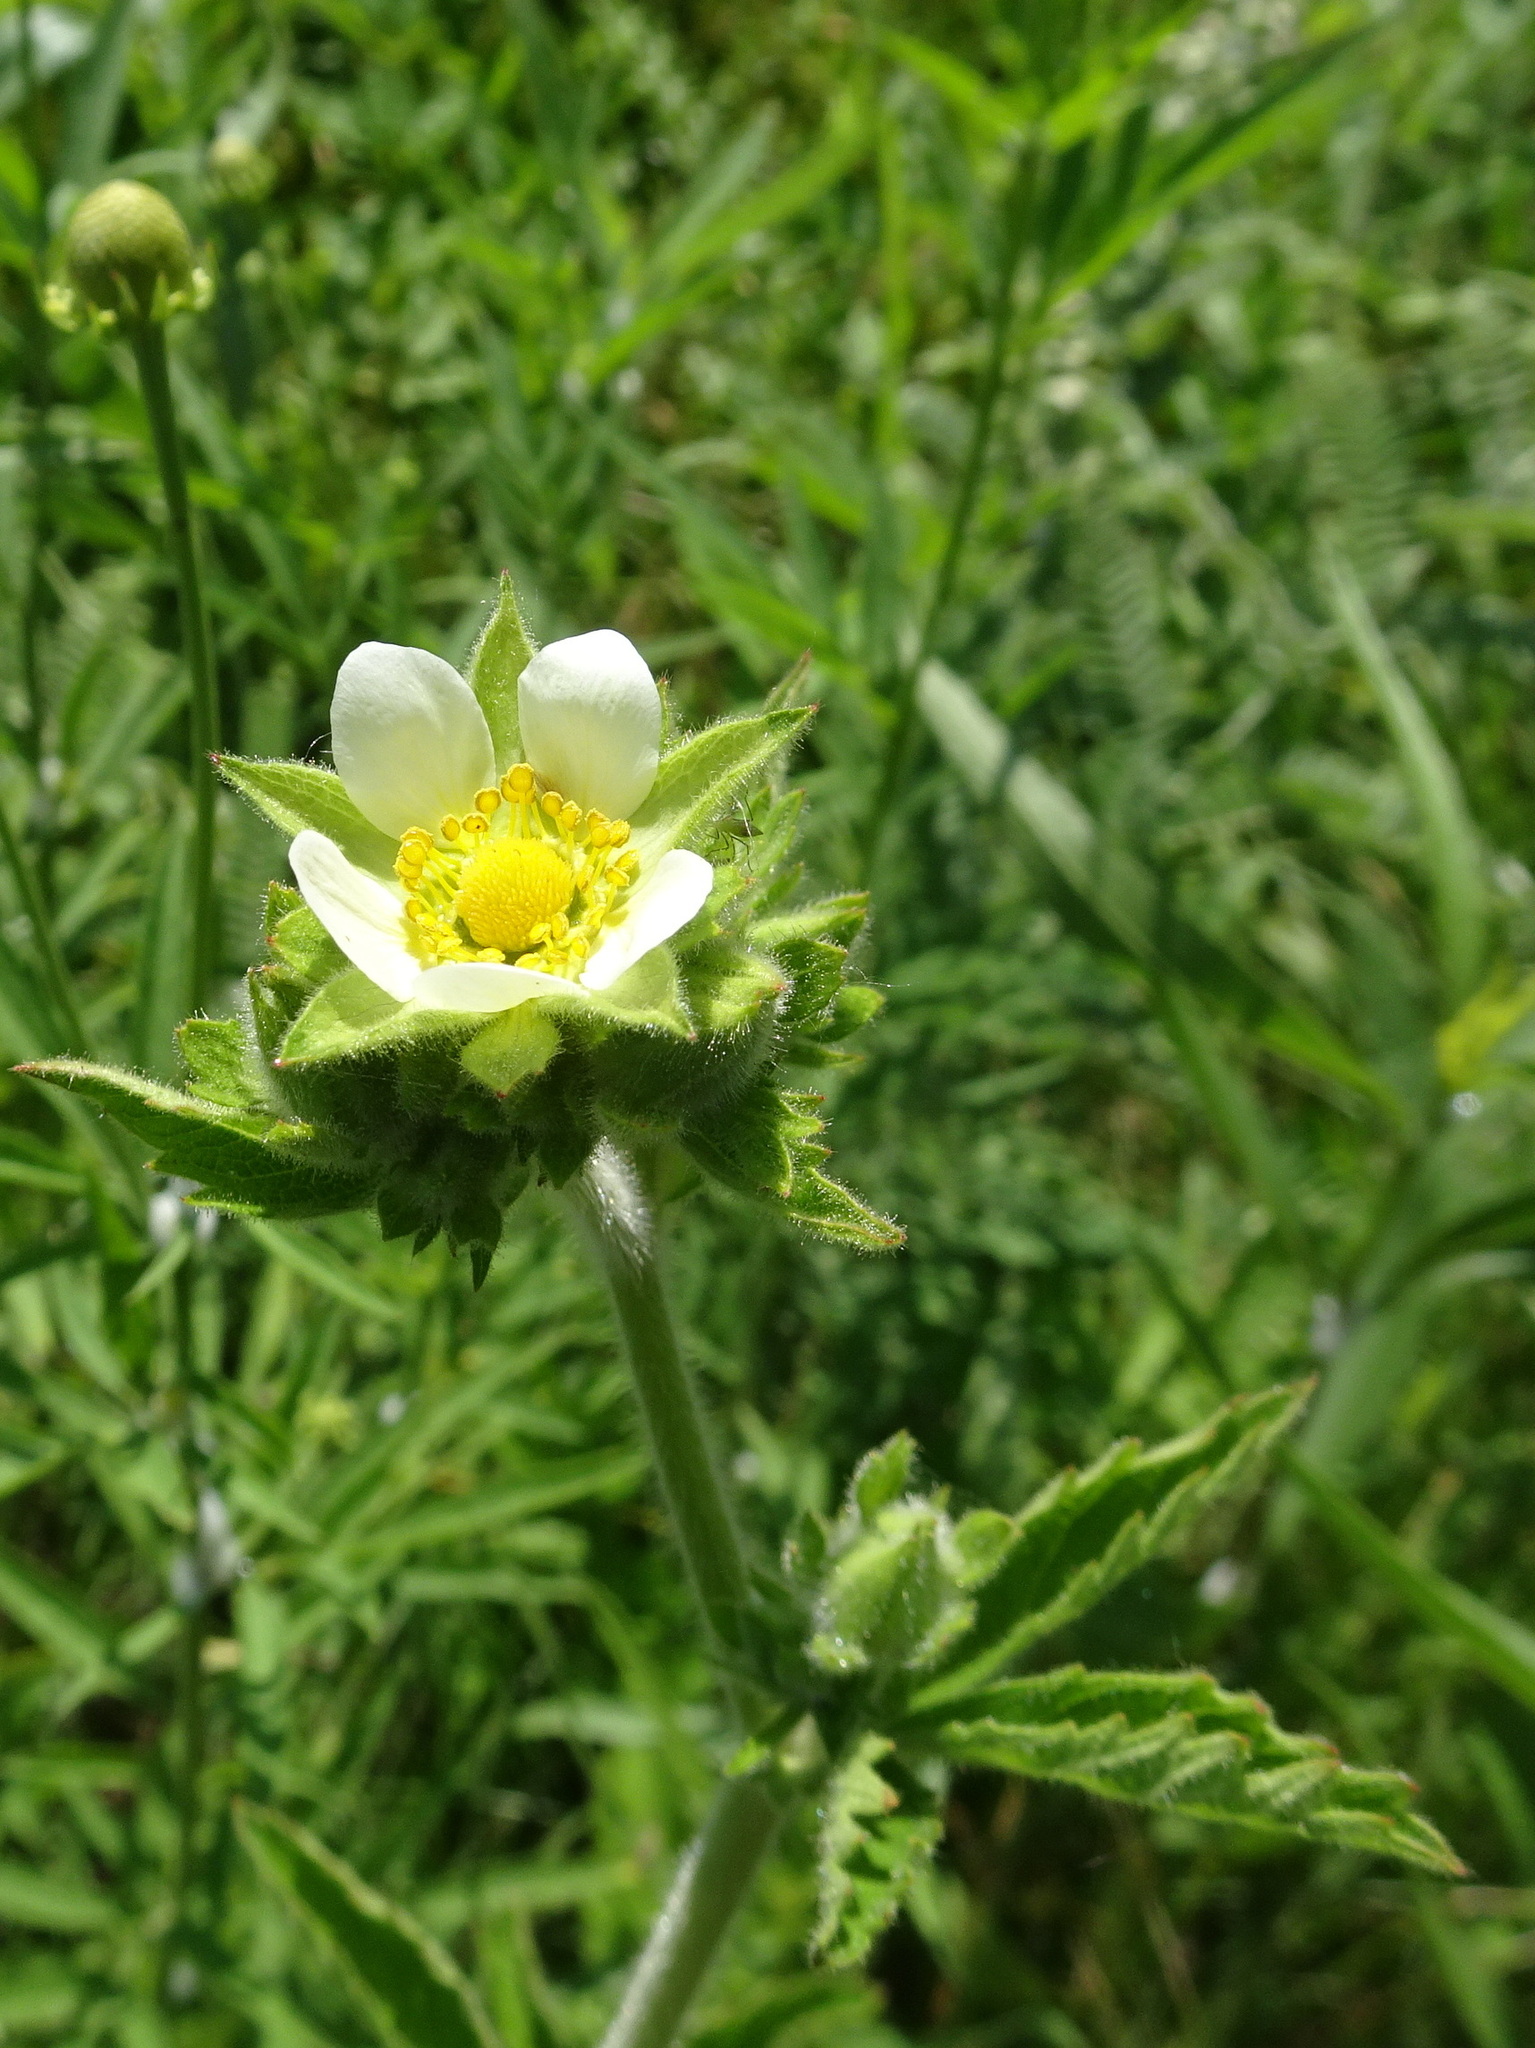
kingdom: Plantae
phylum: Tracheophyta
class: Magnoliopsida
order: Rosales
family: Rosaceae
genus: Drymocallis
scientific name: Drymocallis arguta
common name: Tall cinquefoil
